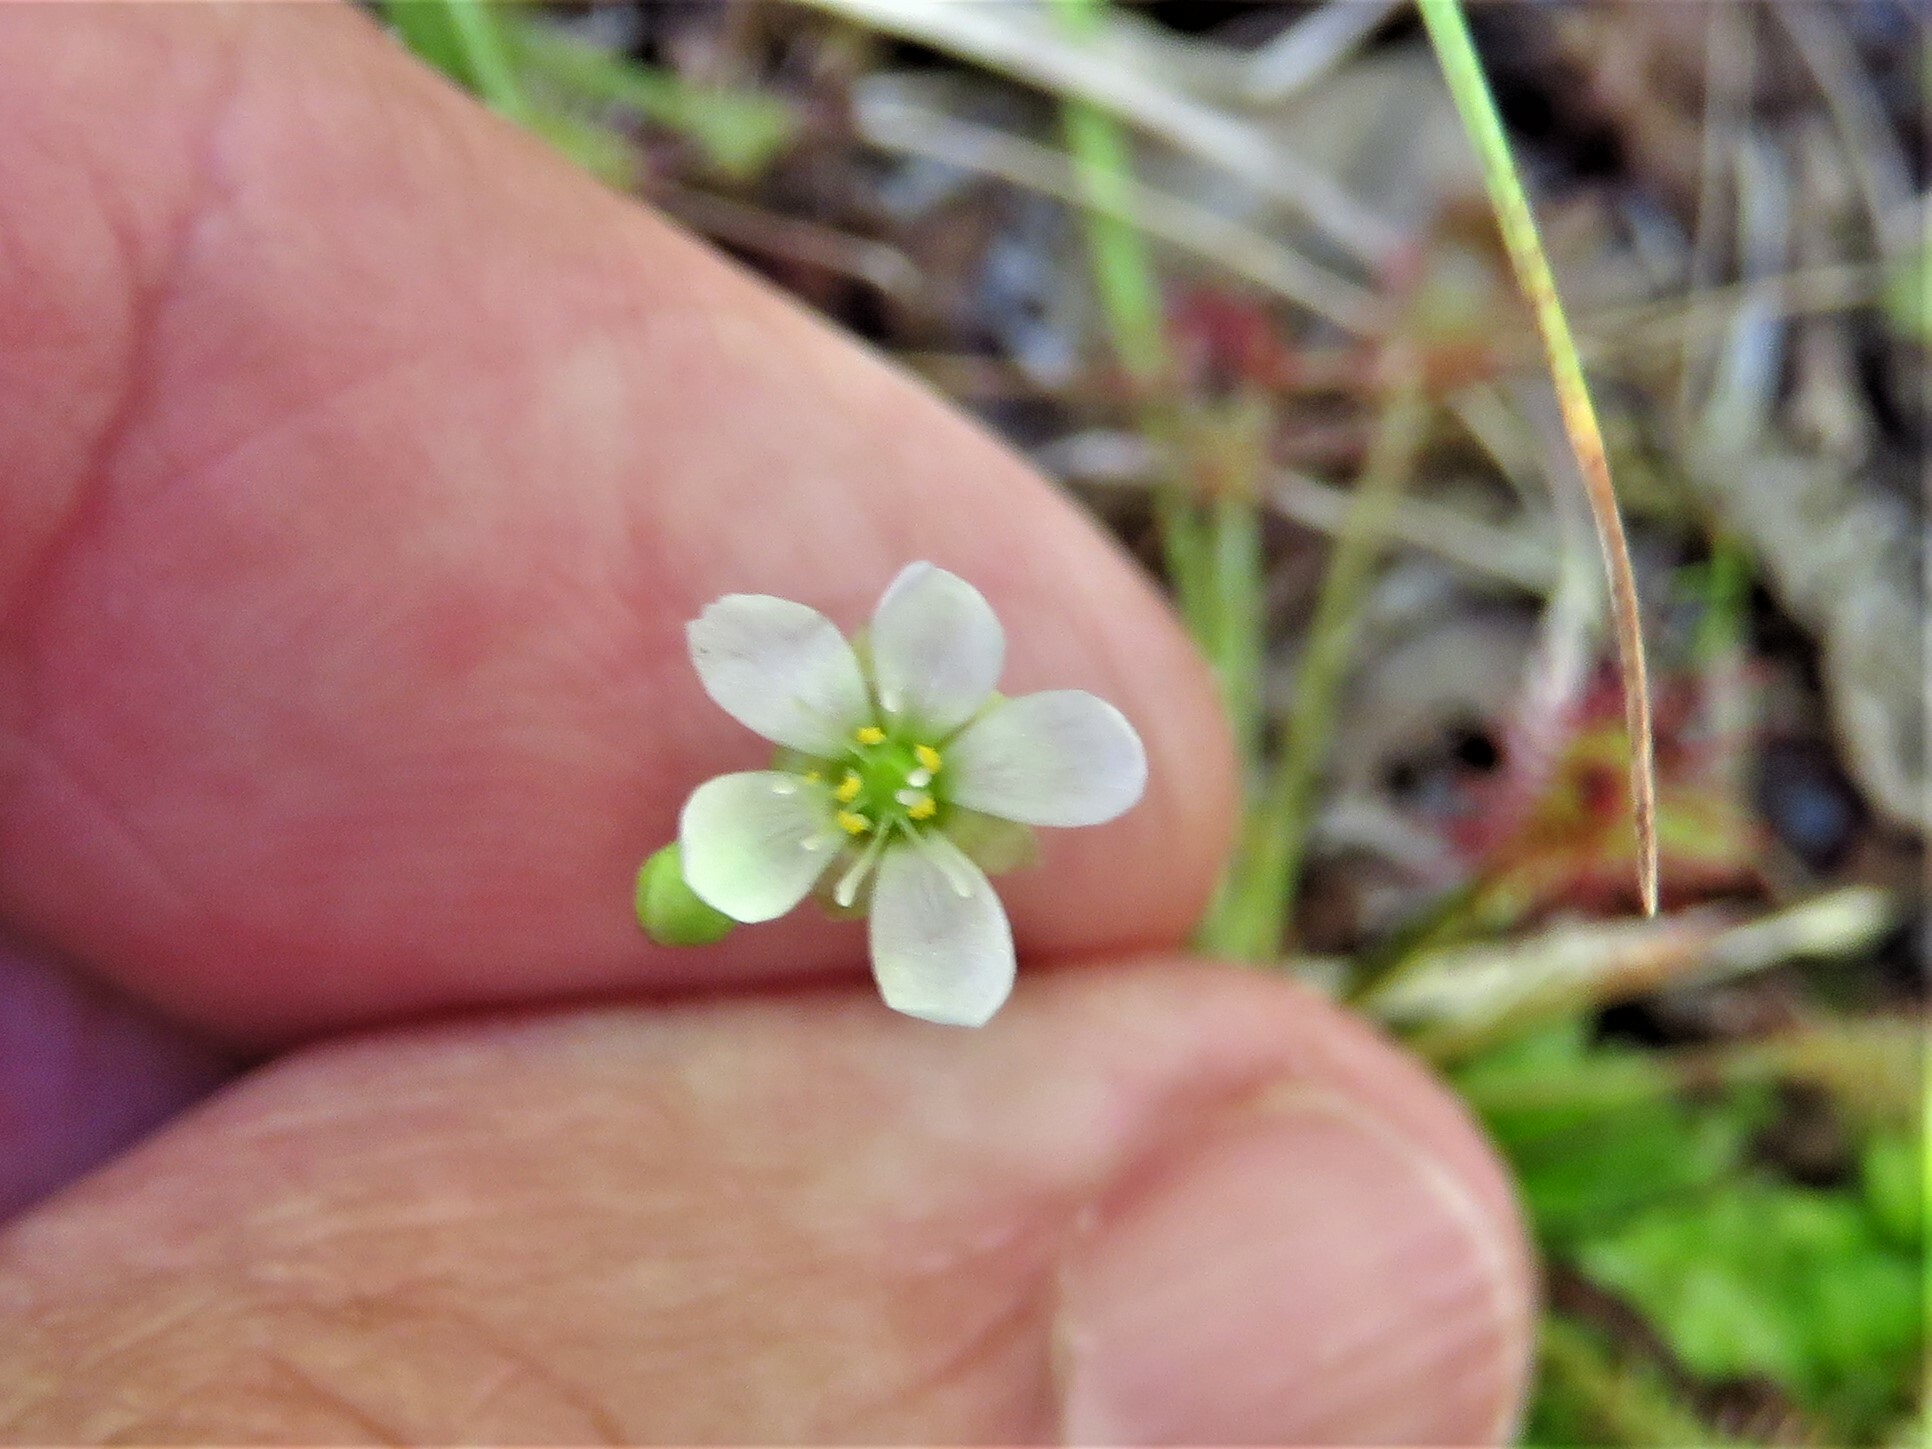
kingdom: Plantae
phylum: Tracheophyta
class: Magnoliopsida
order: Caryophyllales
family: Droseraceae
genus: Drosera
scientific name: Drosera intermedia
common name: Oblong-leaved sundew
